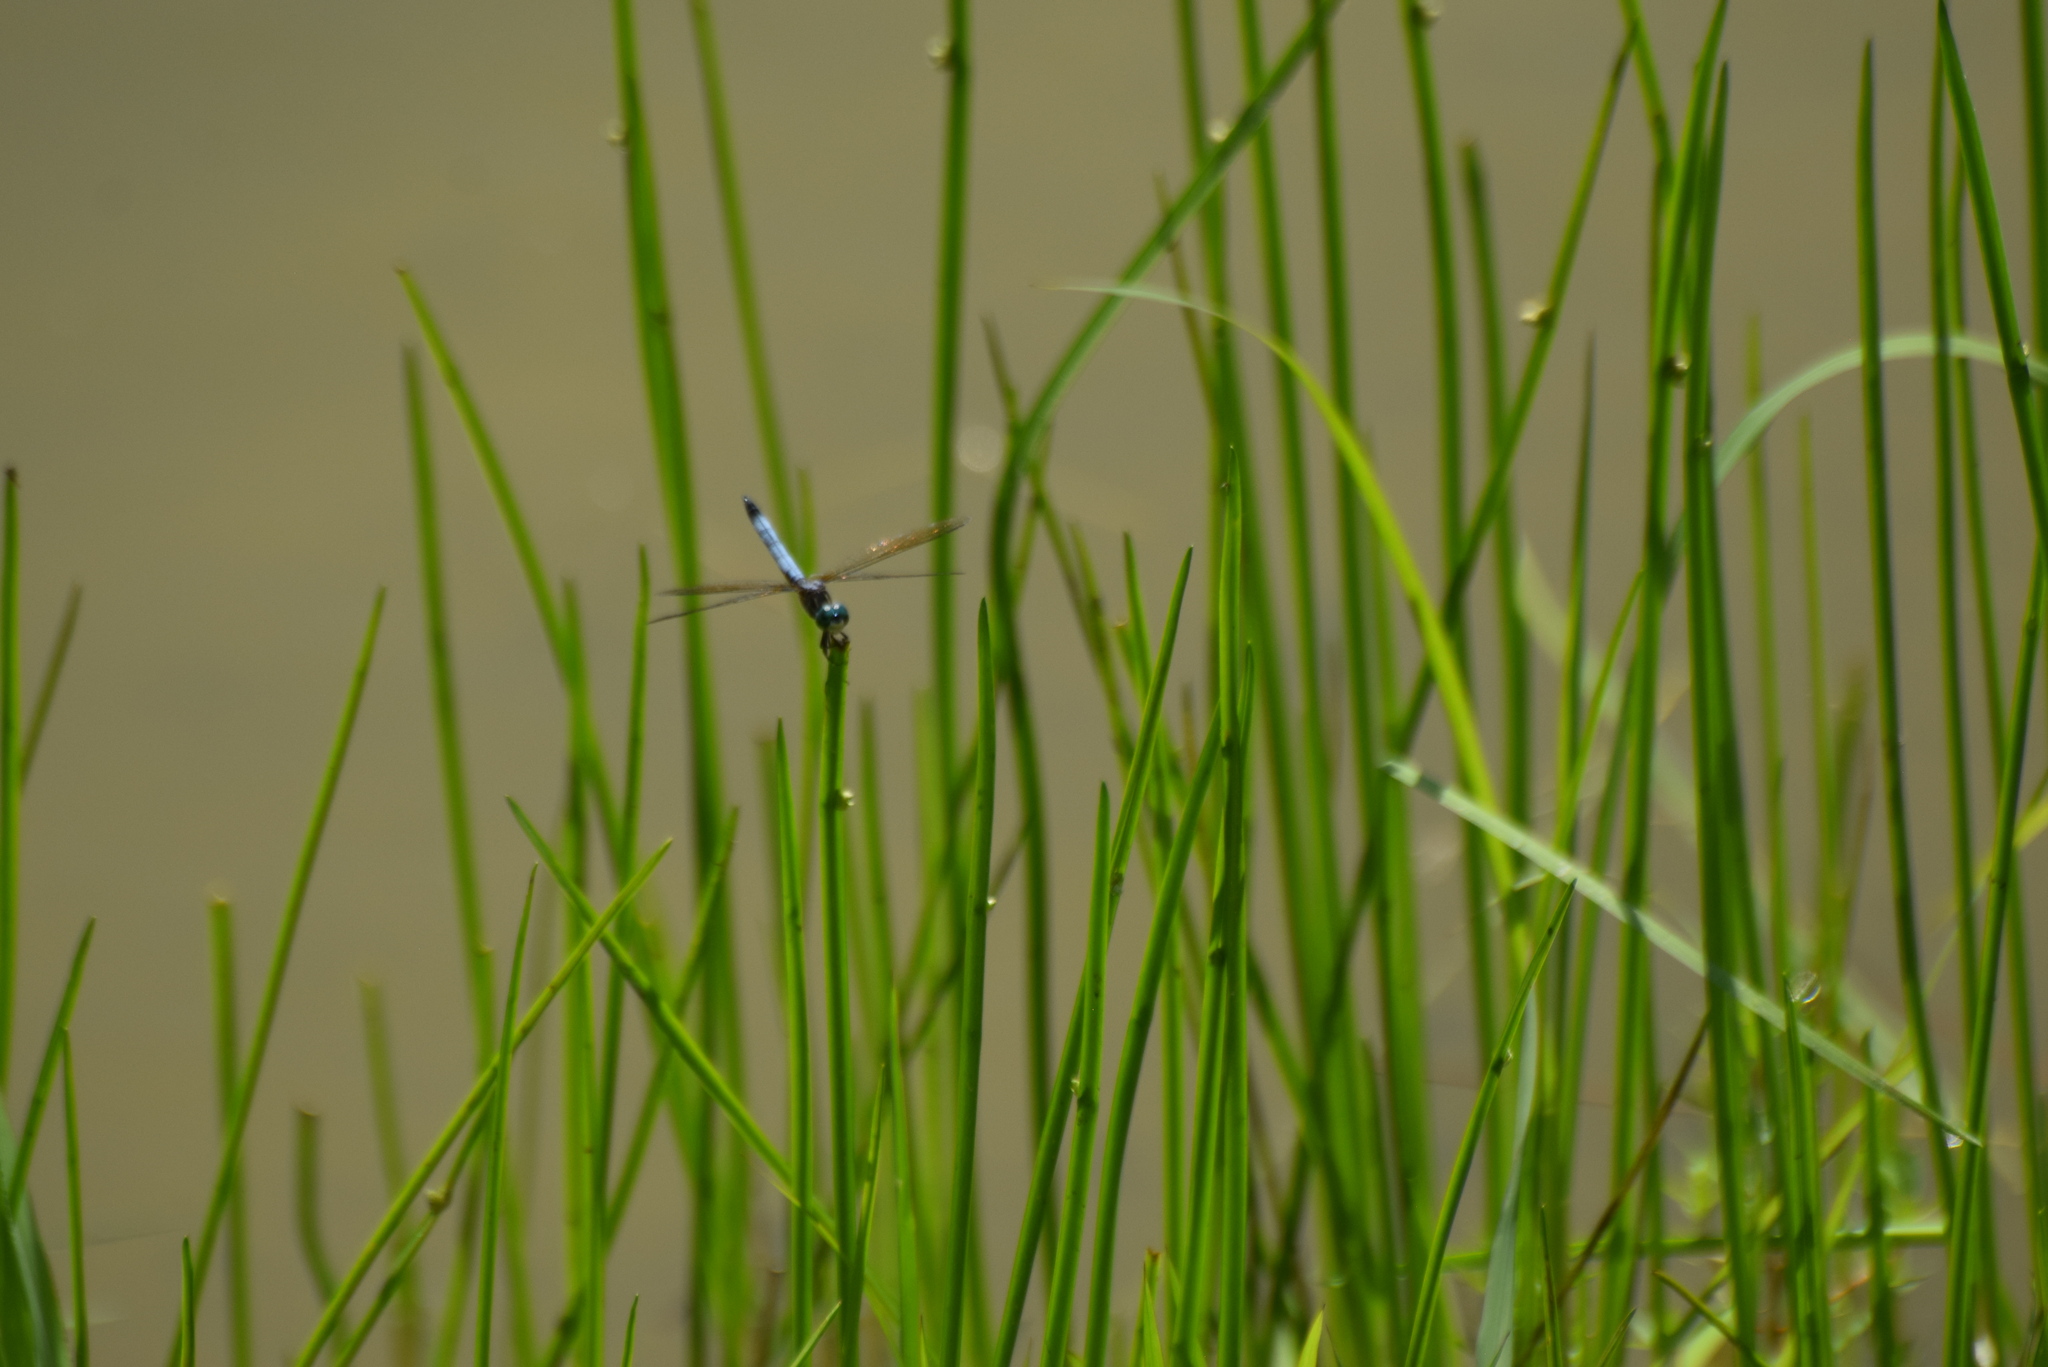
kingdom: Animalia
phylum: Arthropoda
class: Insecta
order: Odonata
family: Libellulidae
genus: Pachydiplax
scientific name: Pachydiplax longipennis
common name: Blue dasher
